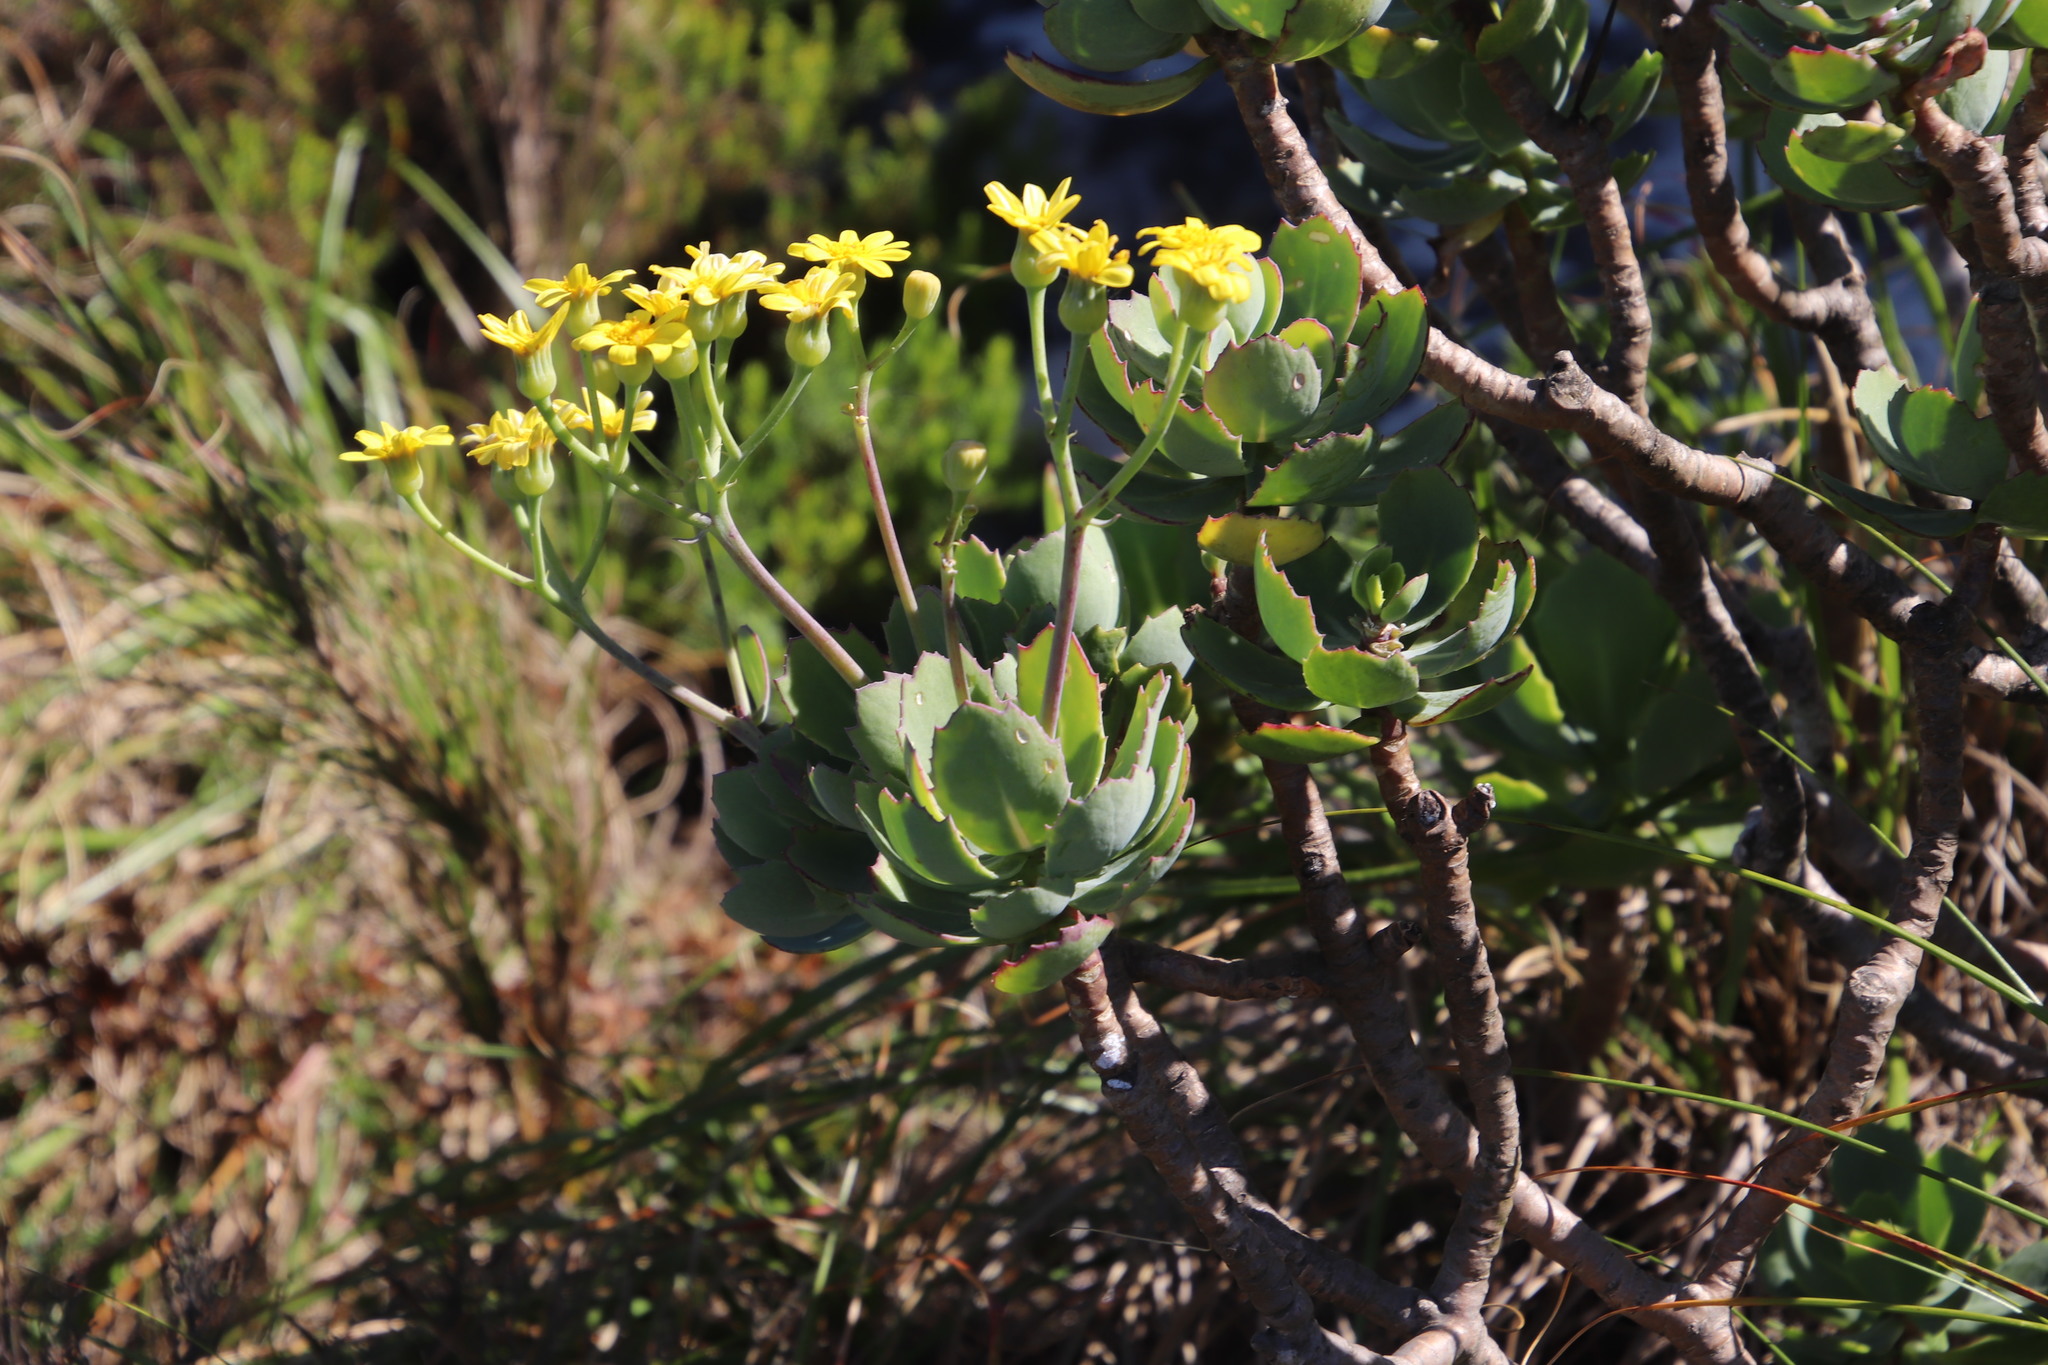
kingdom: Plantae
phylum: Tracheophyta
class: Magnoliopsida
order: Asterales
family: Asteraceae
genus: Othonna
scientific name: Othonna dentata
